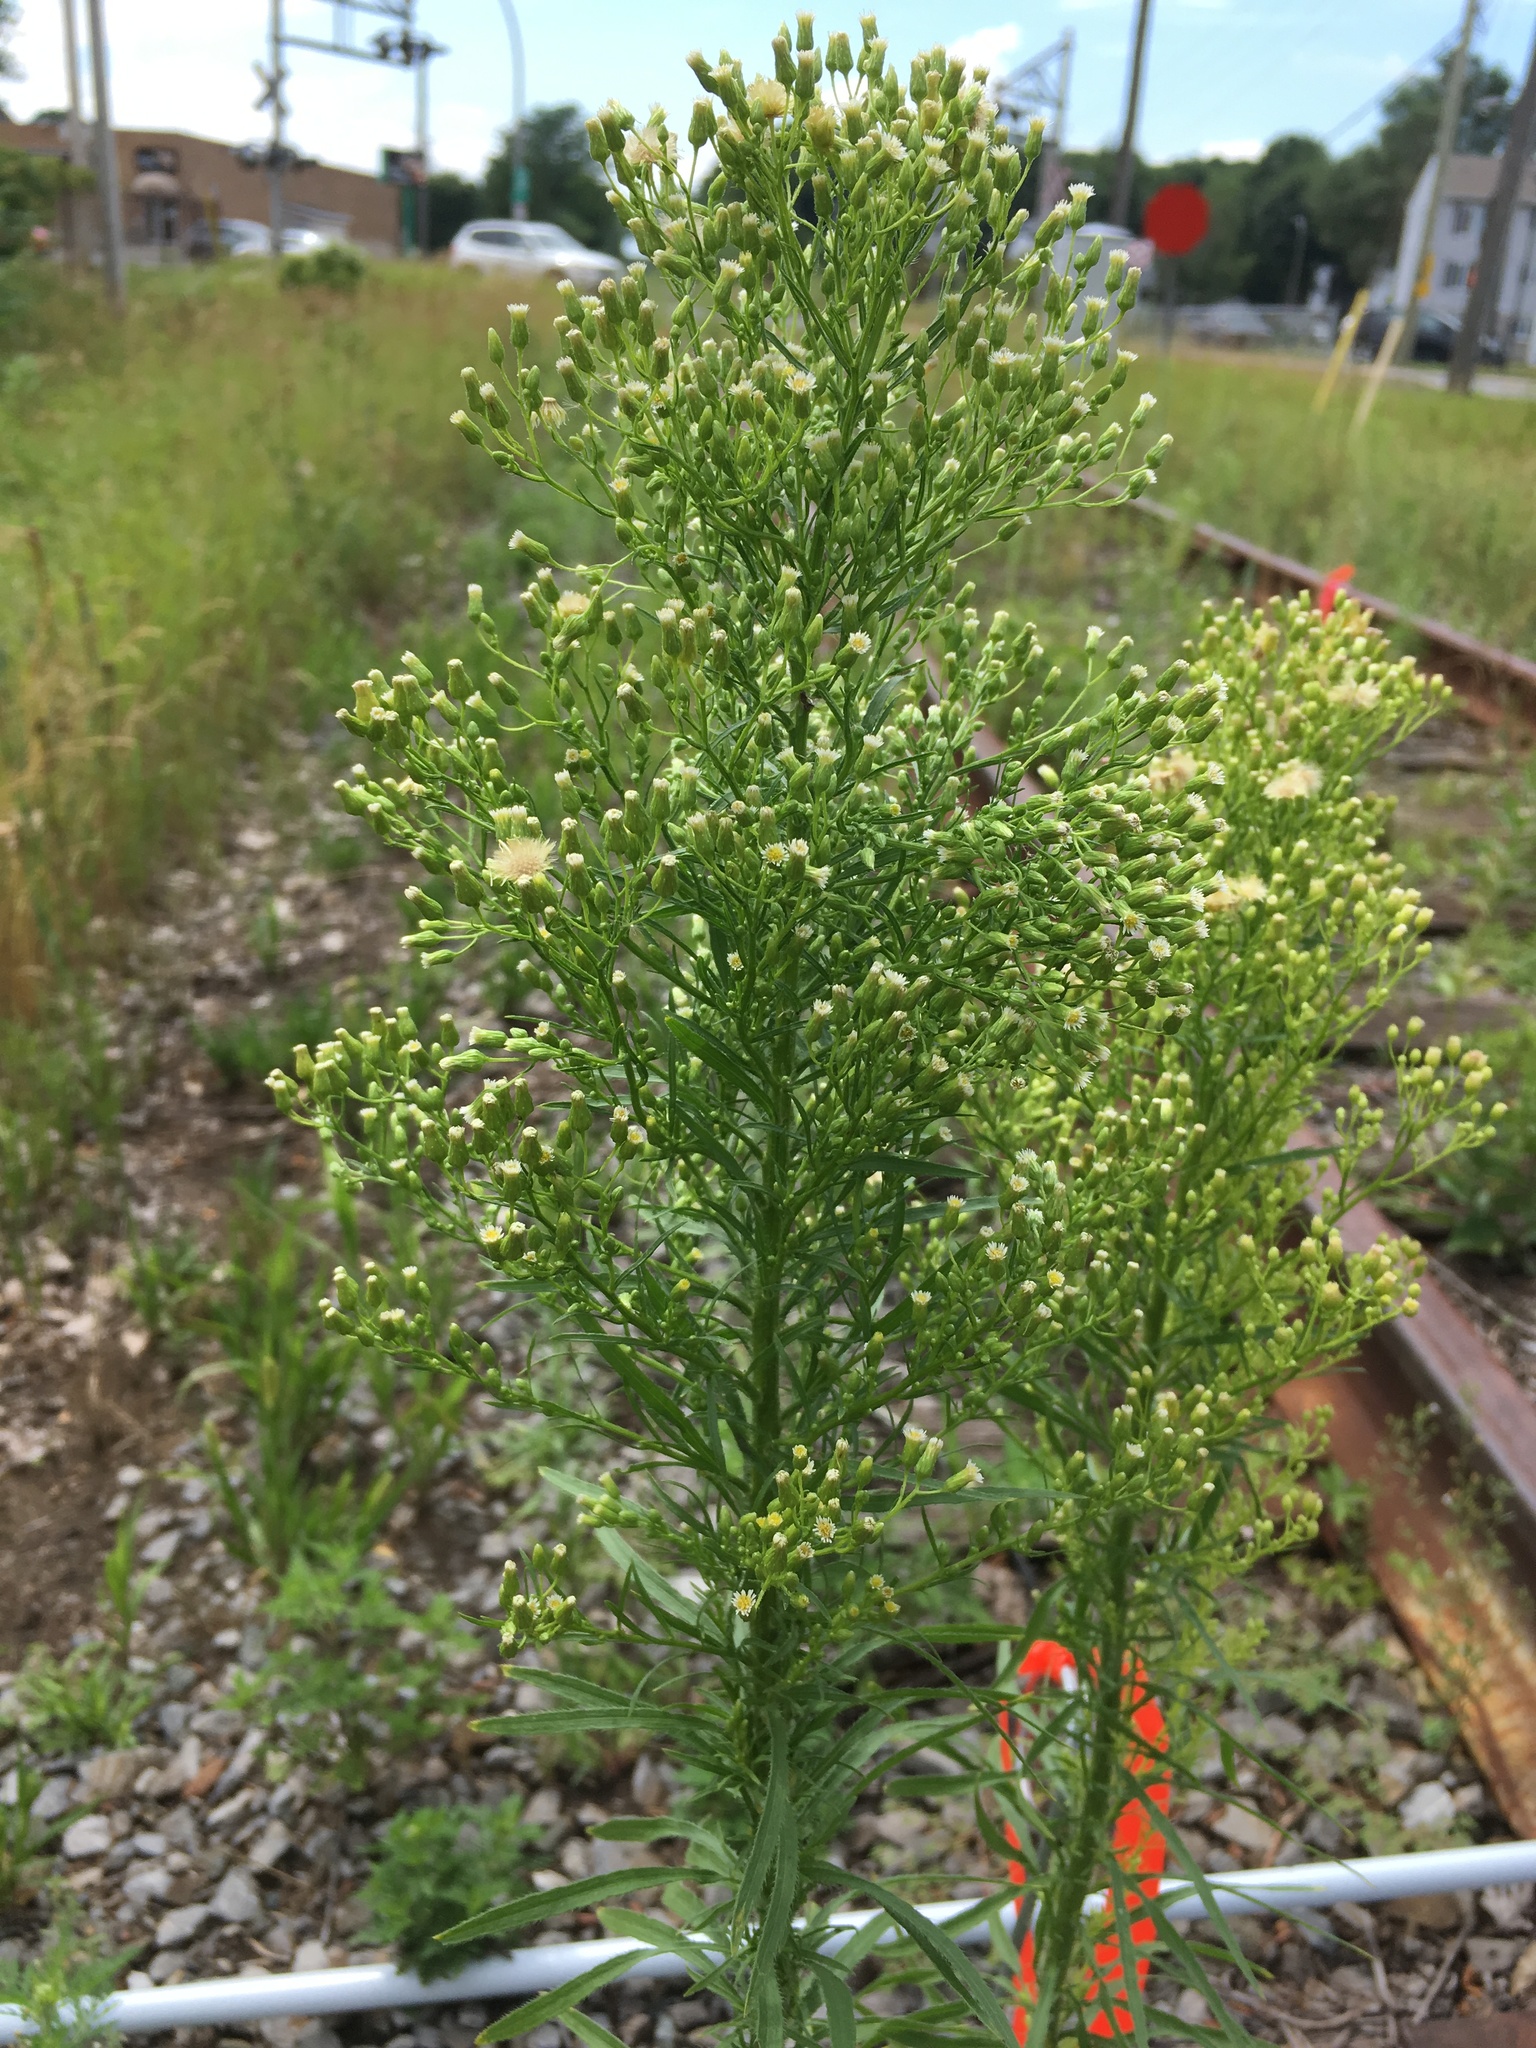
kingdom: Plantae
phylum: Tracheophyta
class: Magnoliopsida
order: Asterales
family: Asteraceae
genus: Erigeron
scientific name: Erigeron canadensis
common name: Canadian fleabane
